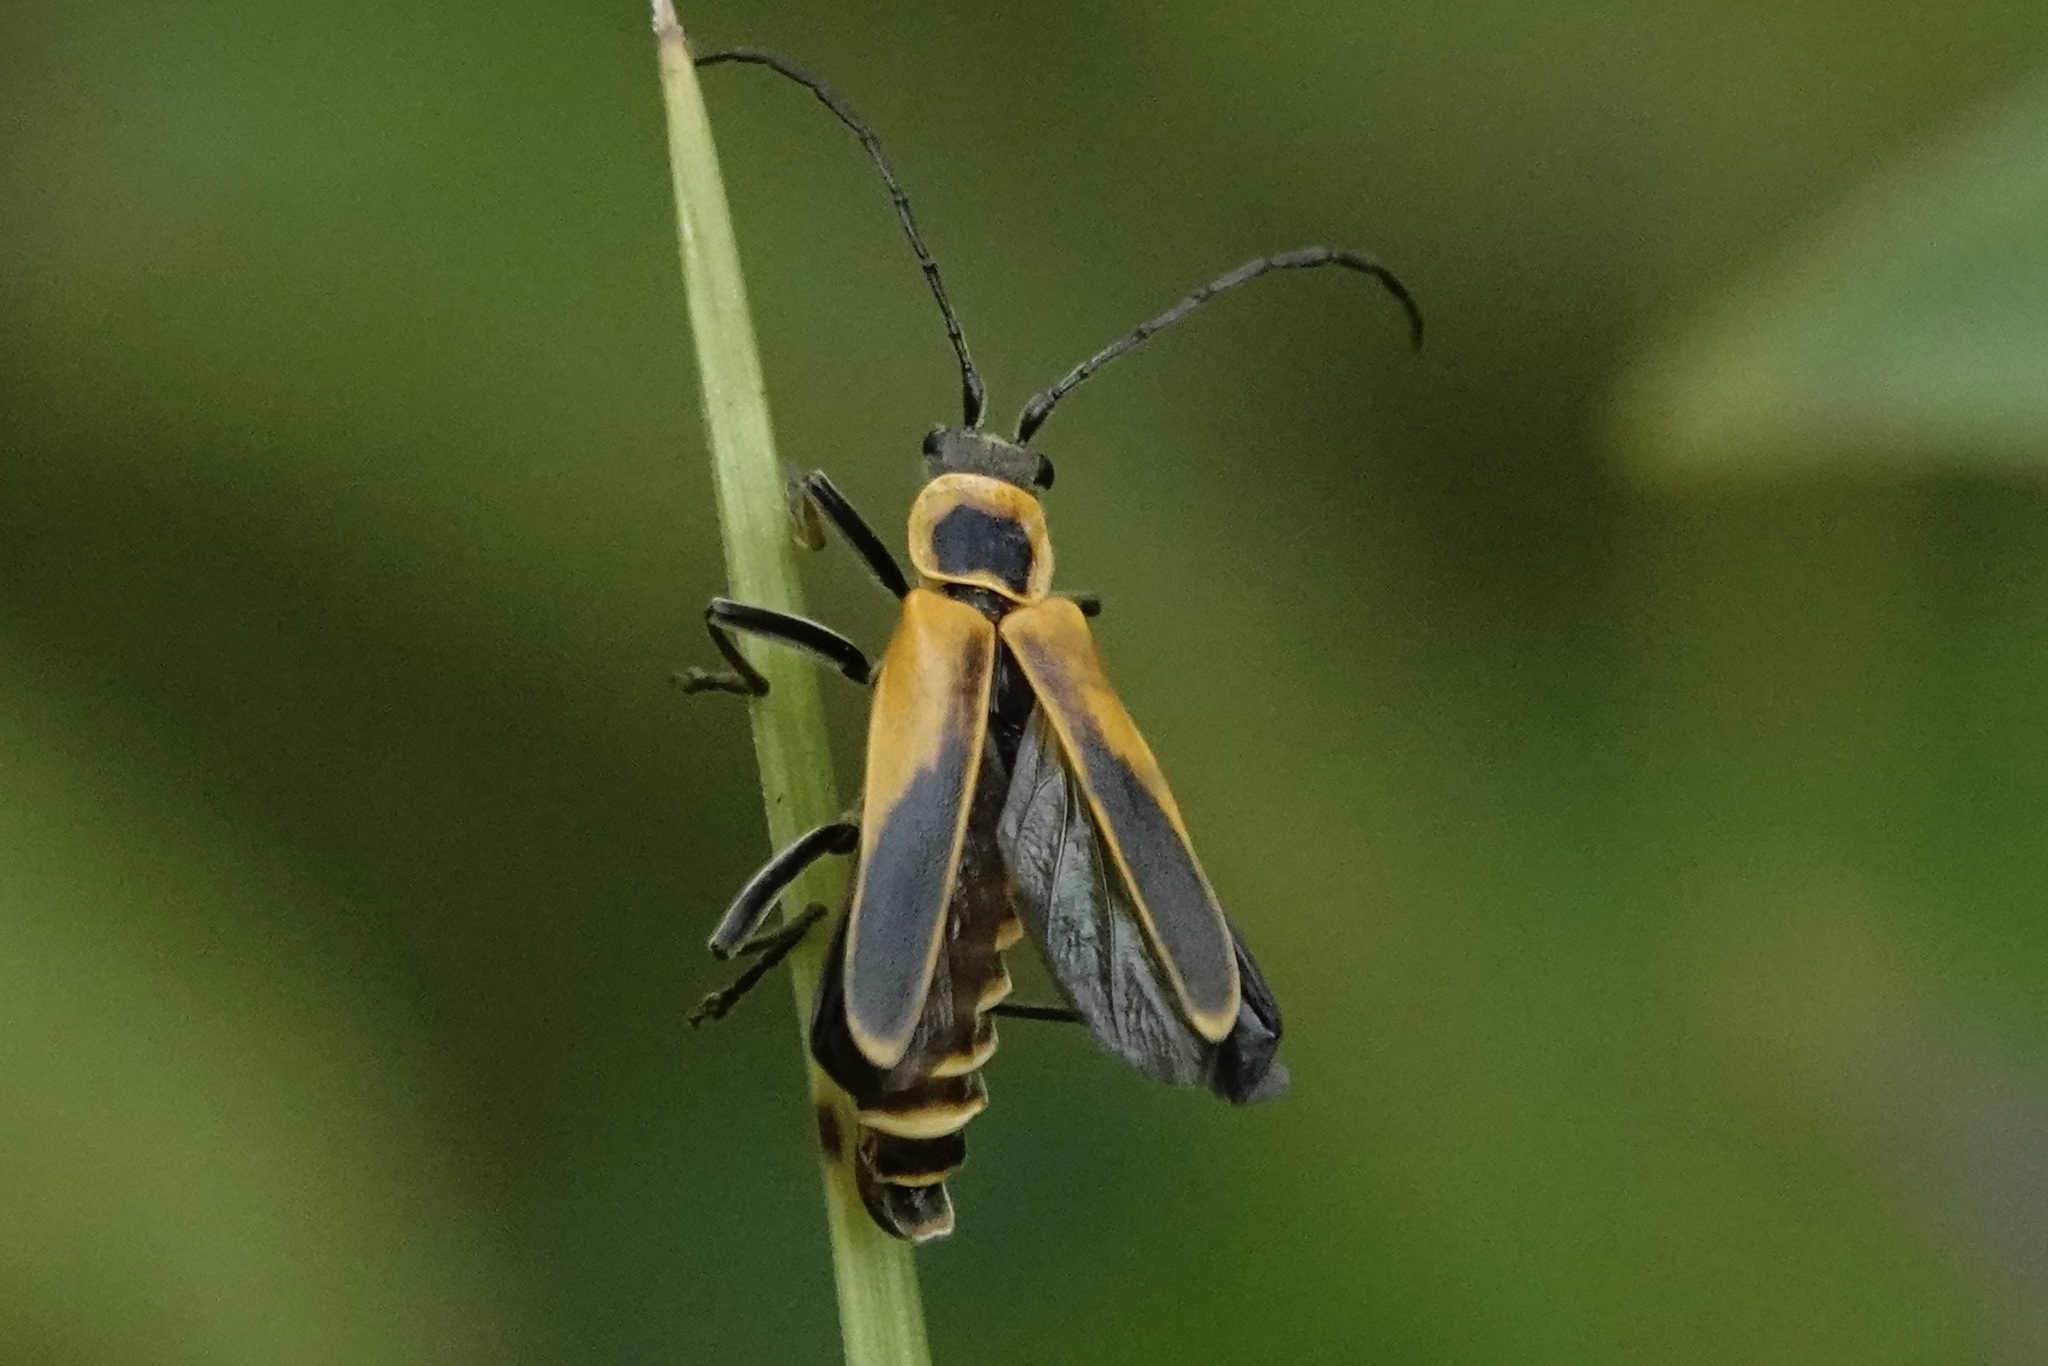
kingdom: Animalia
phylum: Arthropoda
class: Insecta
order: Coleoptera
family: Cantharidae
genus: Chauliognathus
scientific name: Chauliognathus pensylvanicus
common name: Goldenrod soldier beetle
